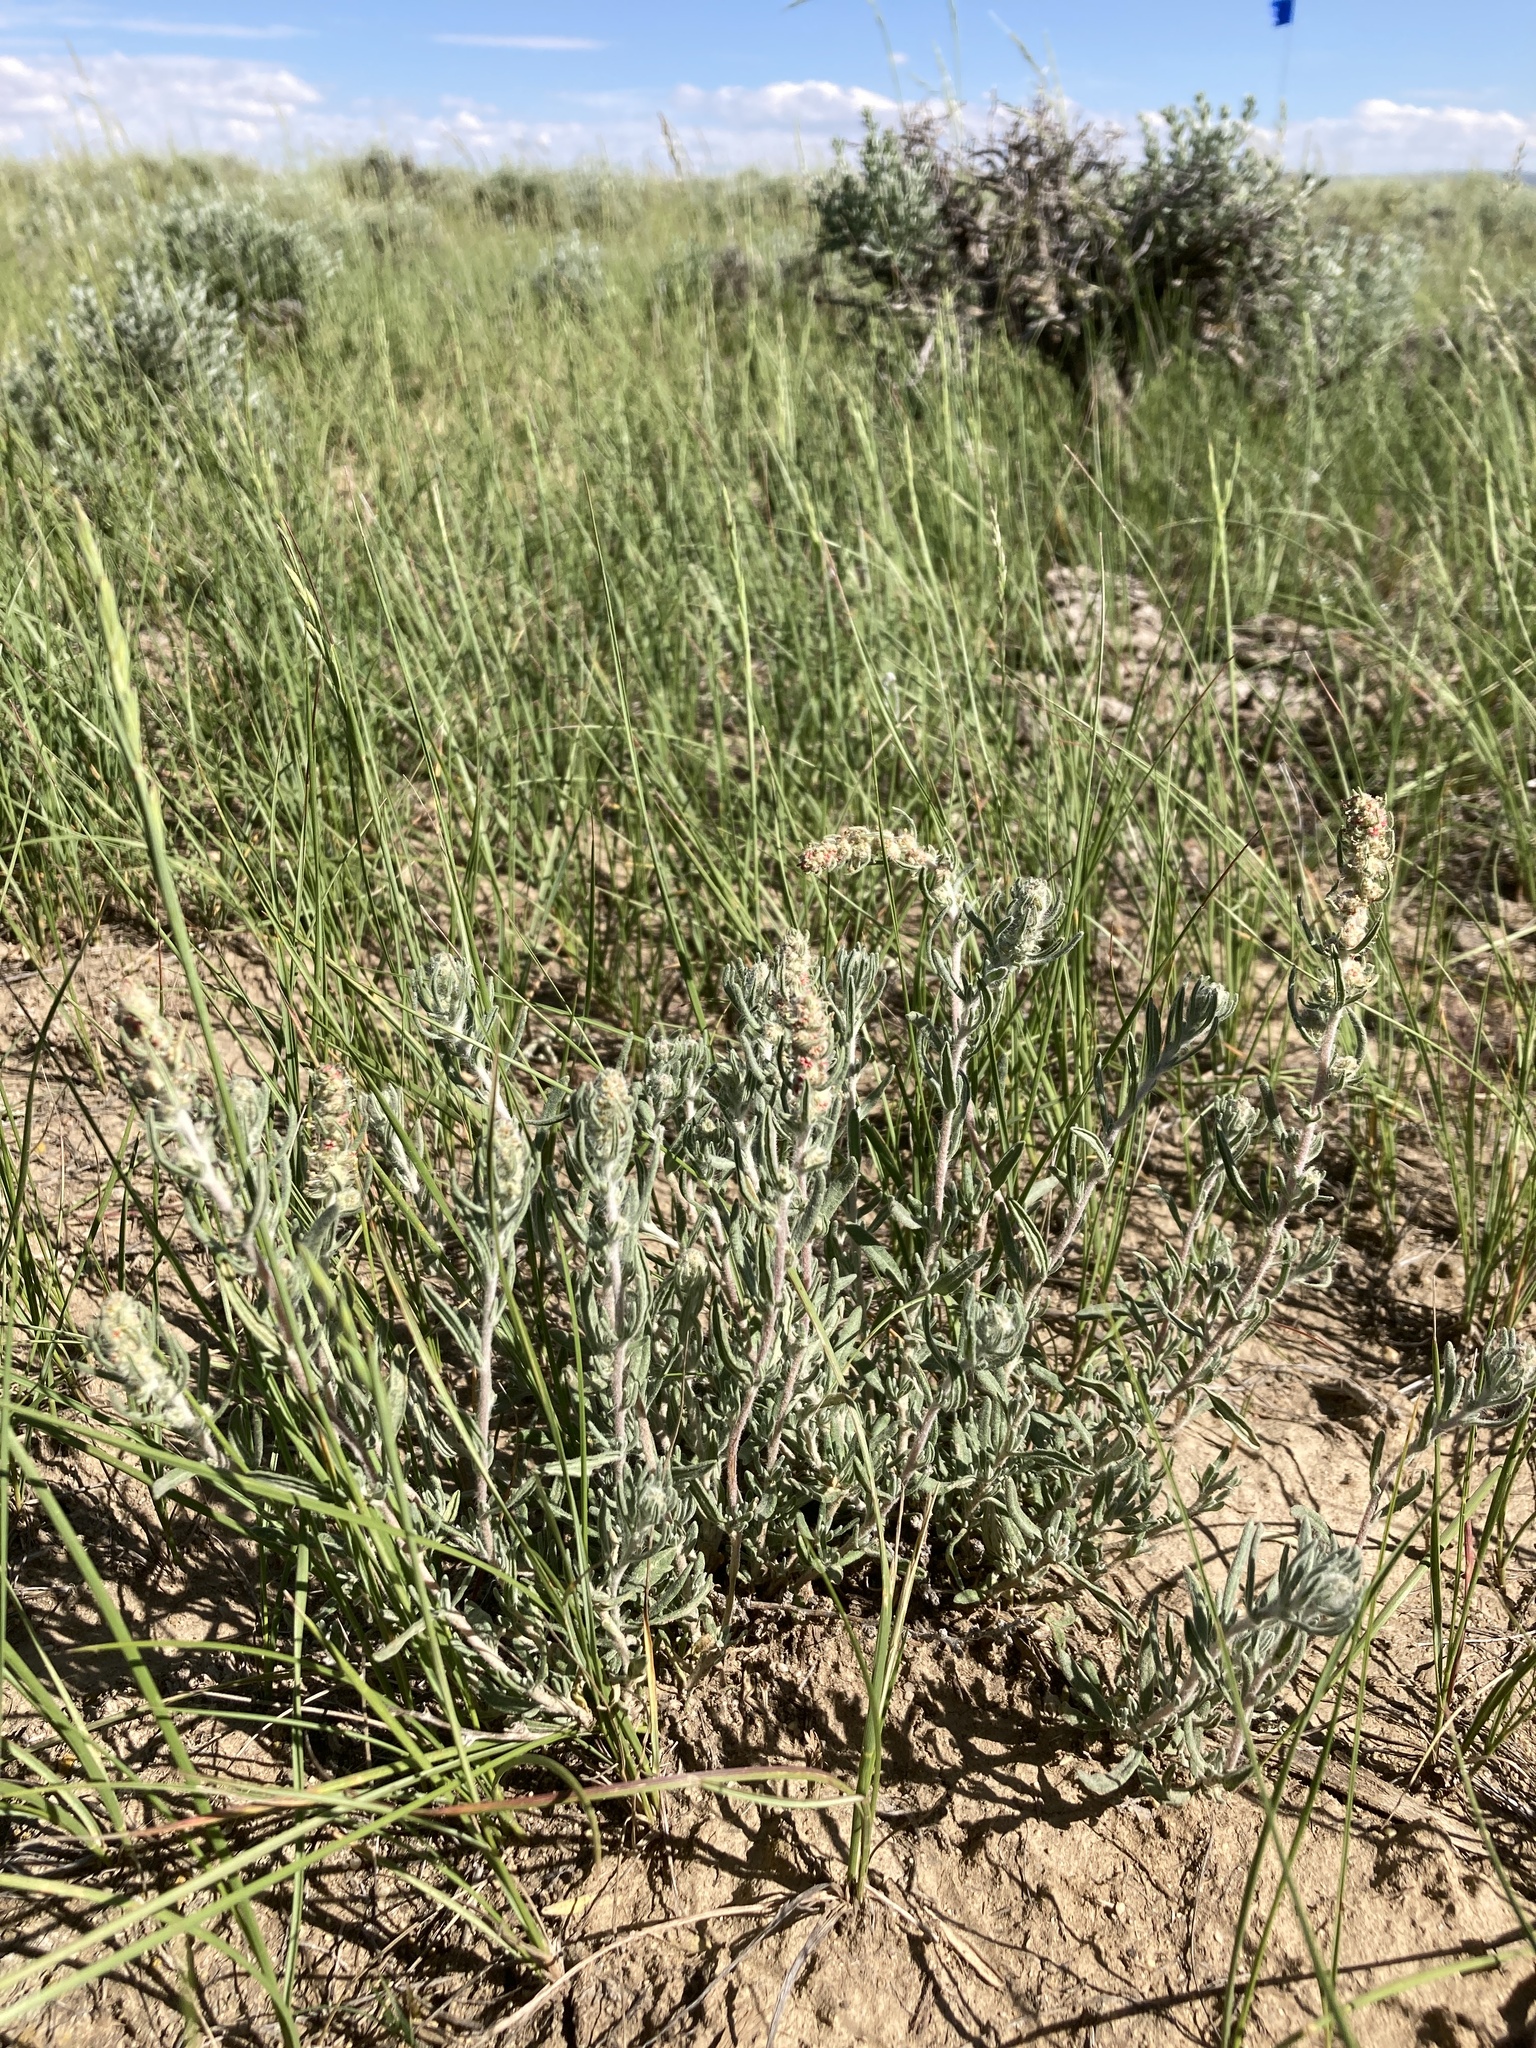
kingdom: Plantae
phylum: Tracheophyta
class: Magnoliopsida
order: Caryophyllales
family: Amaranthaceae
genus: Krascheninnikovia
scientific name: Krascheninnikovia lanata
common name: Winterfat
